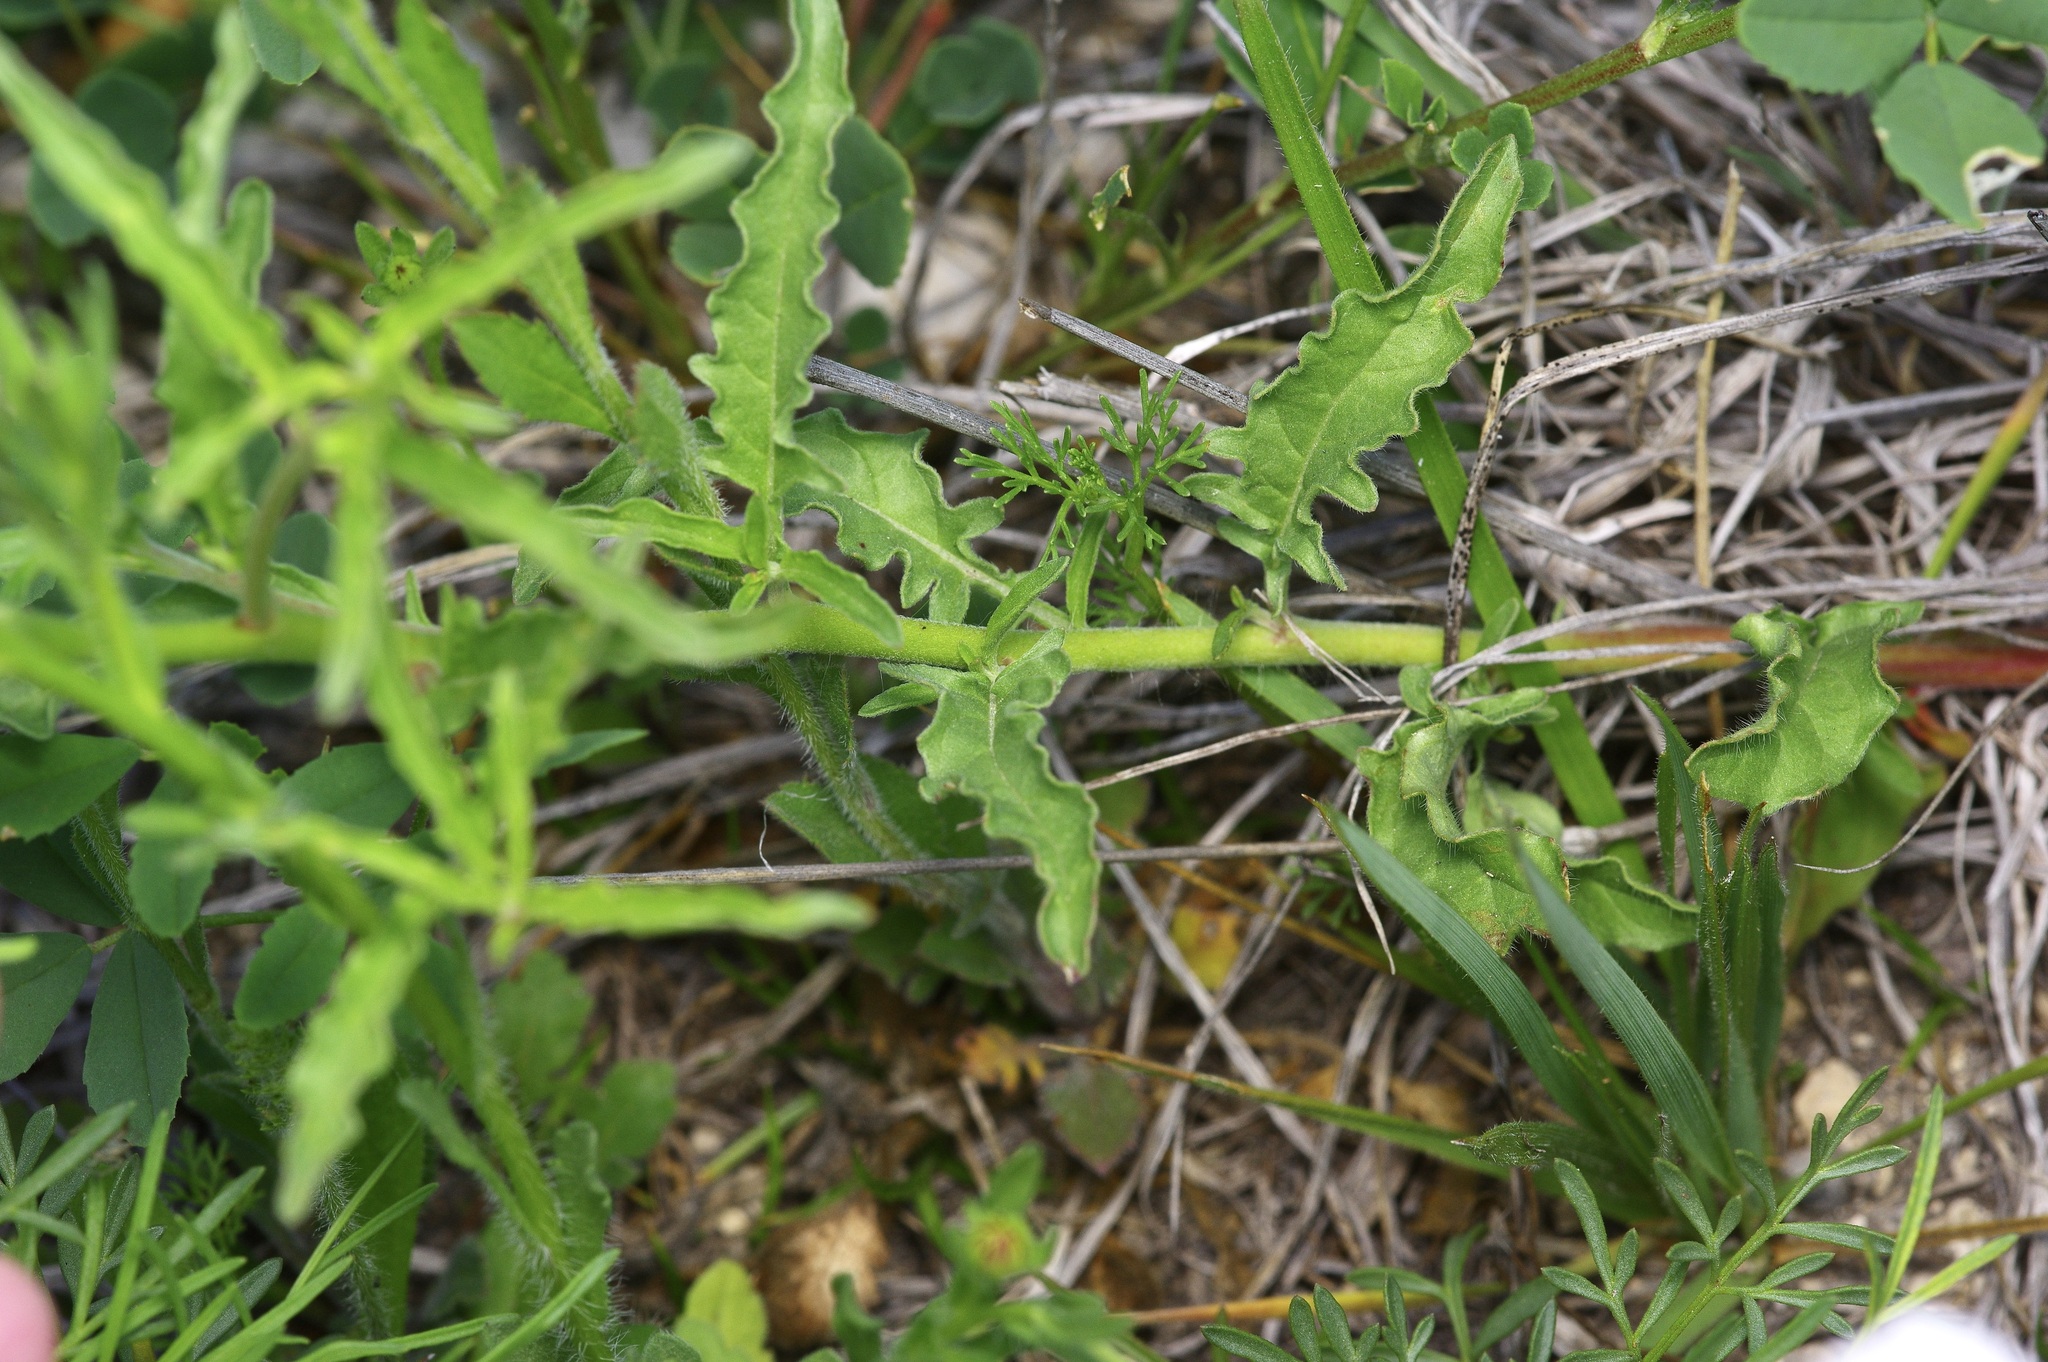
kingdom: Plantae
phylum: Tracheophyta
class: Magnoliopsida
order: Myrtales
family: Onagraceae
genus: Oenothera
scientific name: Oenothera tetraptera
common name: Four-wing evening-primrose
